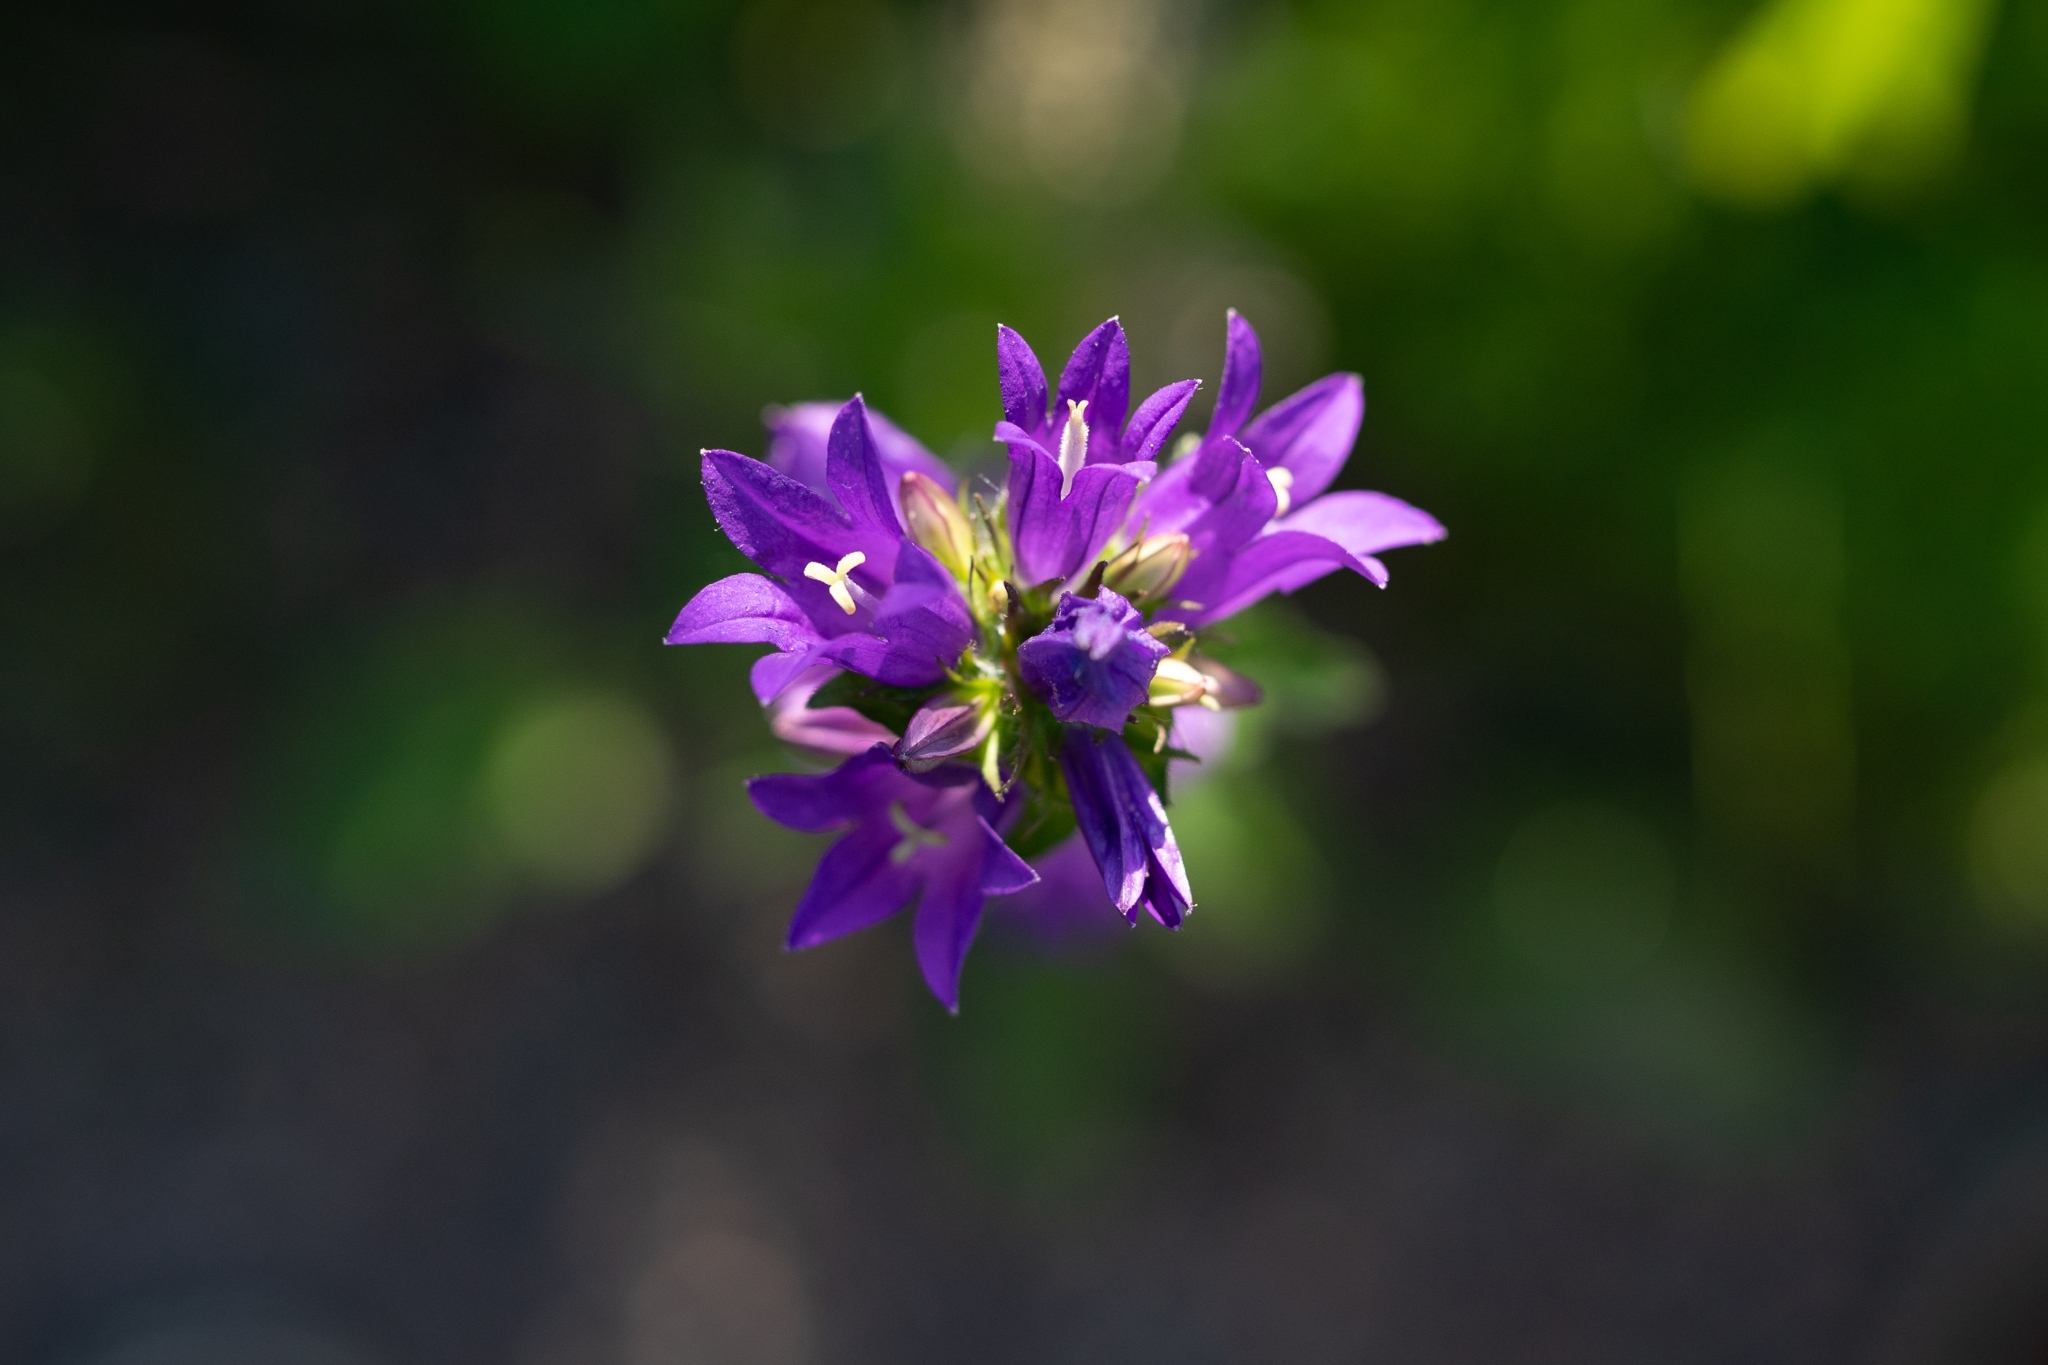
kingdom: Plantae
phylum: Tracheophyta
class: Magnoliopsida
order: Asterales
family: Campanulaceae
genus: Campanula
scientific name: Campanula glomerata
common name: Clustered bellflower
